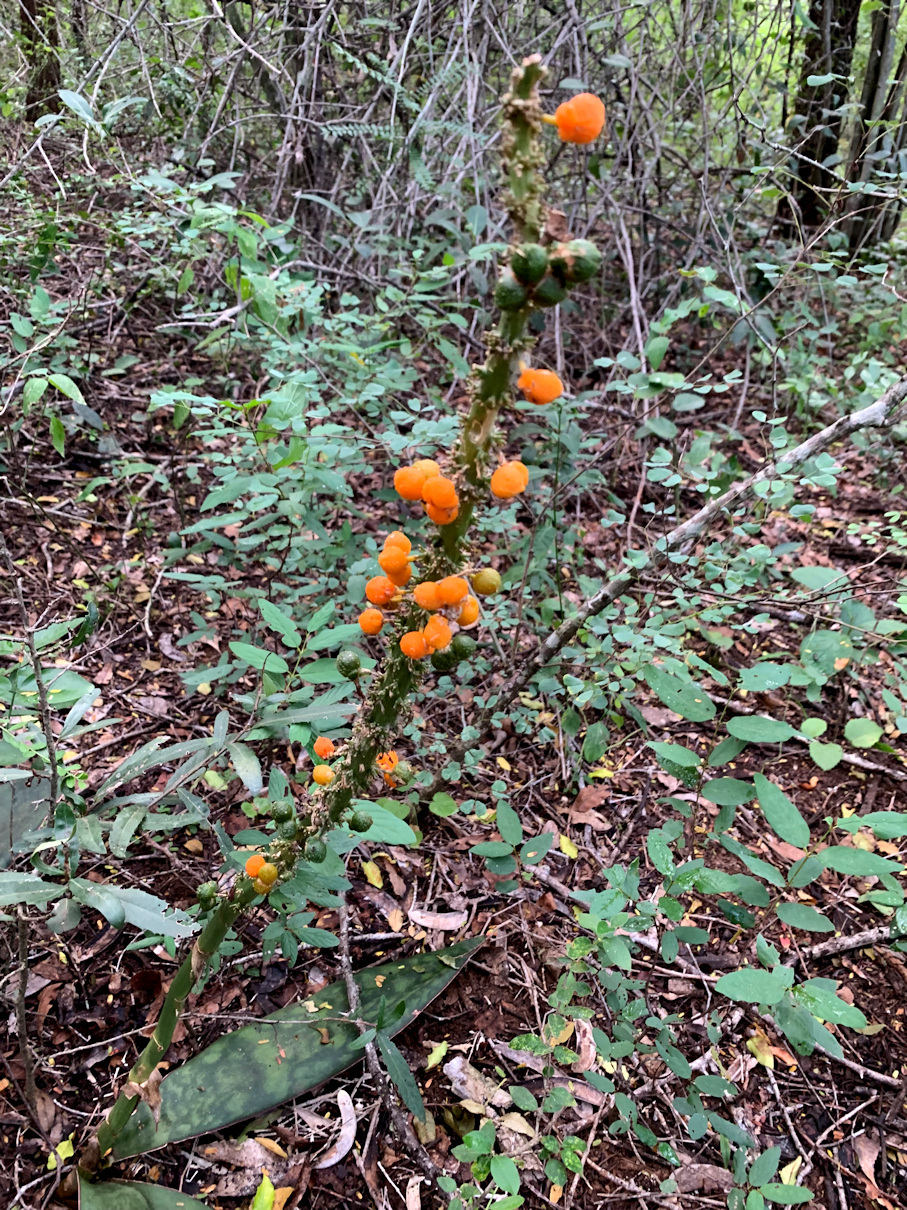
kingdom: Plantae
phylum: Tracheophyta
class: Liliopsida
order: Asparagales
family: Asparagaceae
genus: Dracaena
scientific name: Dracaena hyacinthoides
